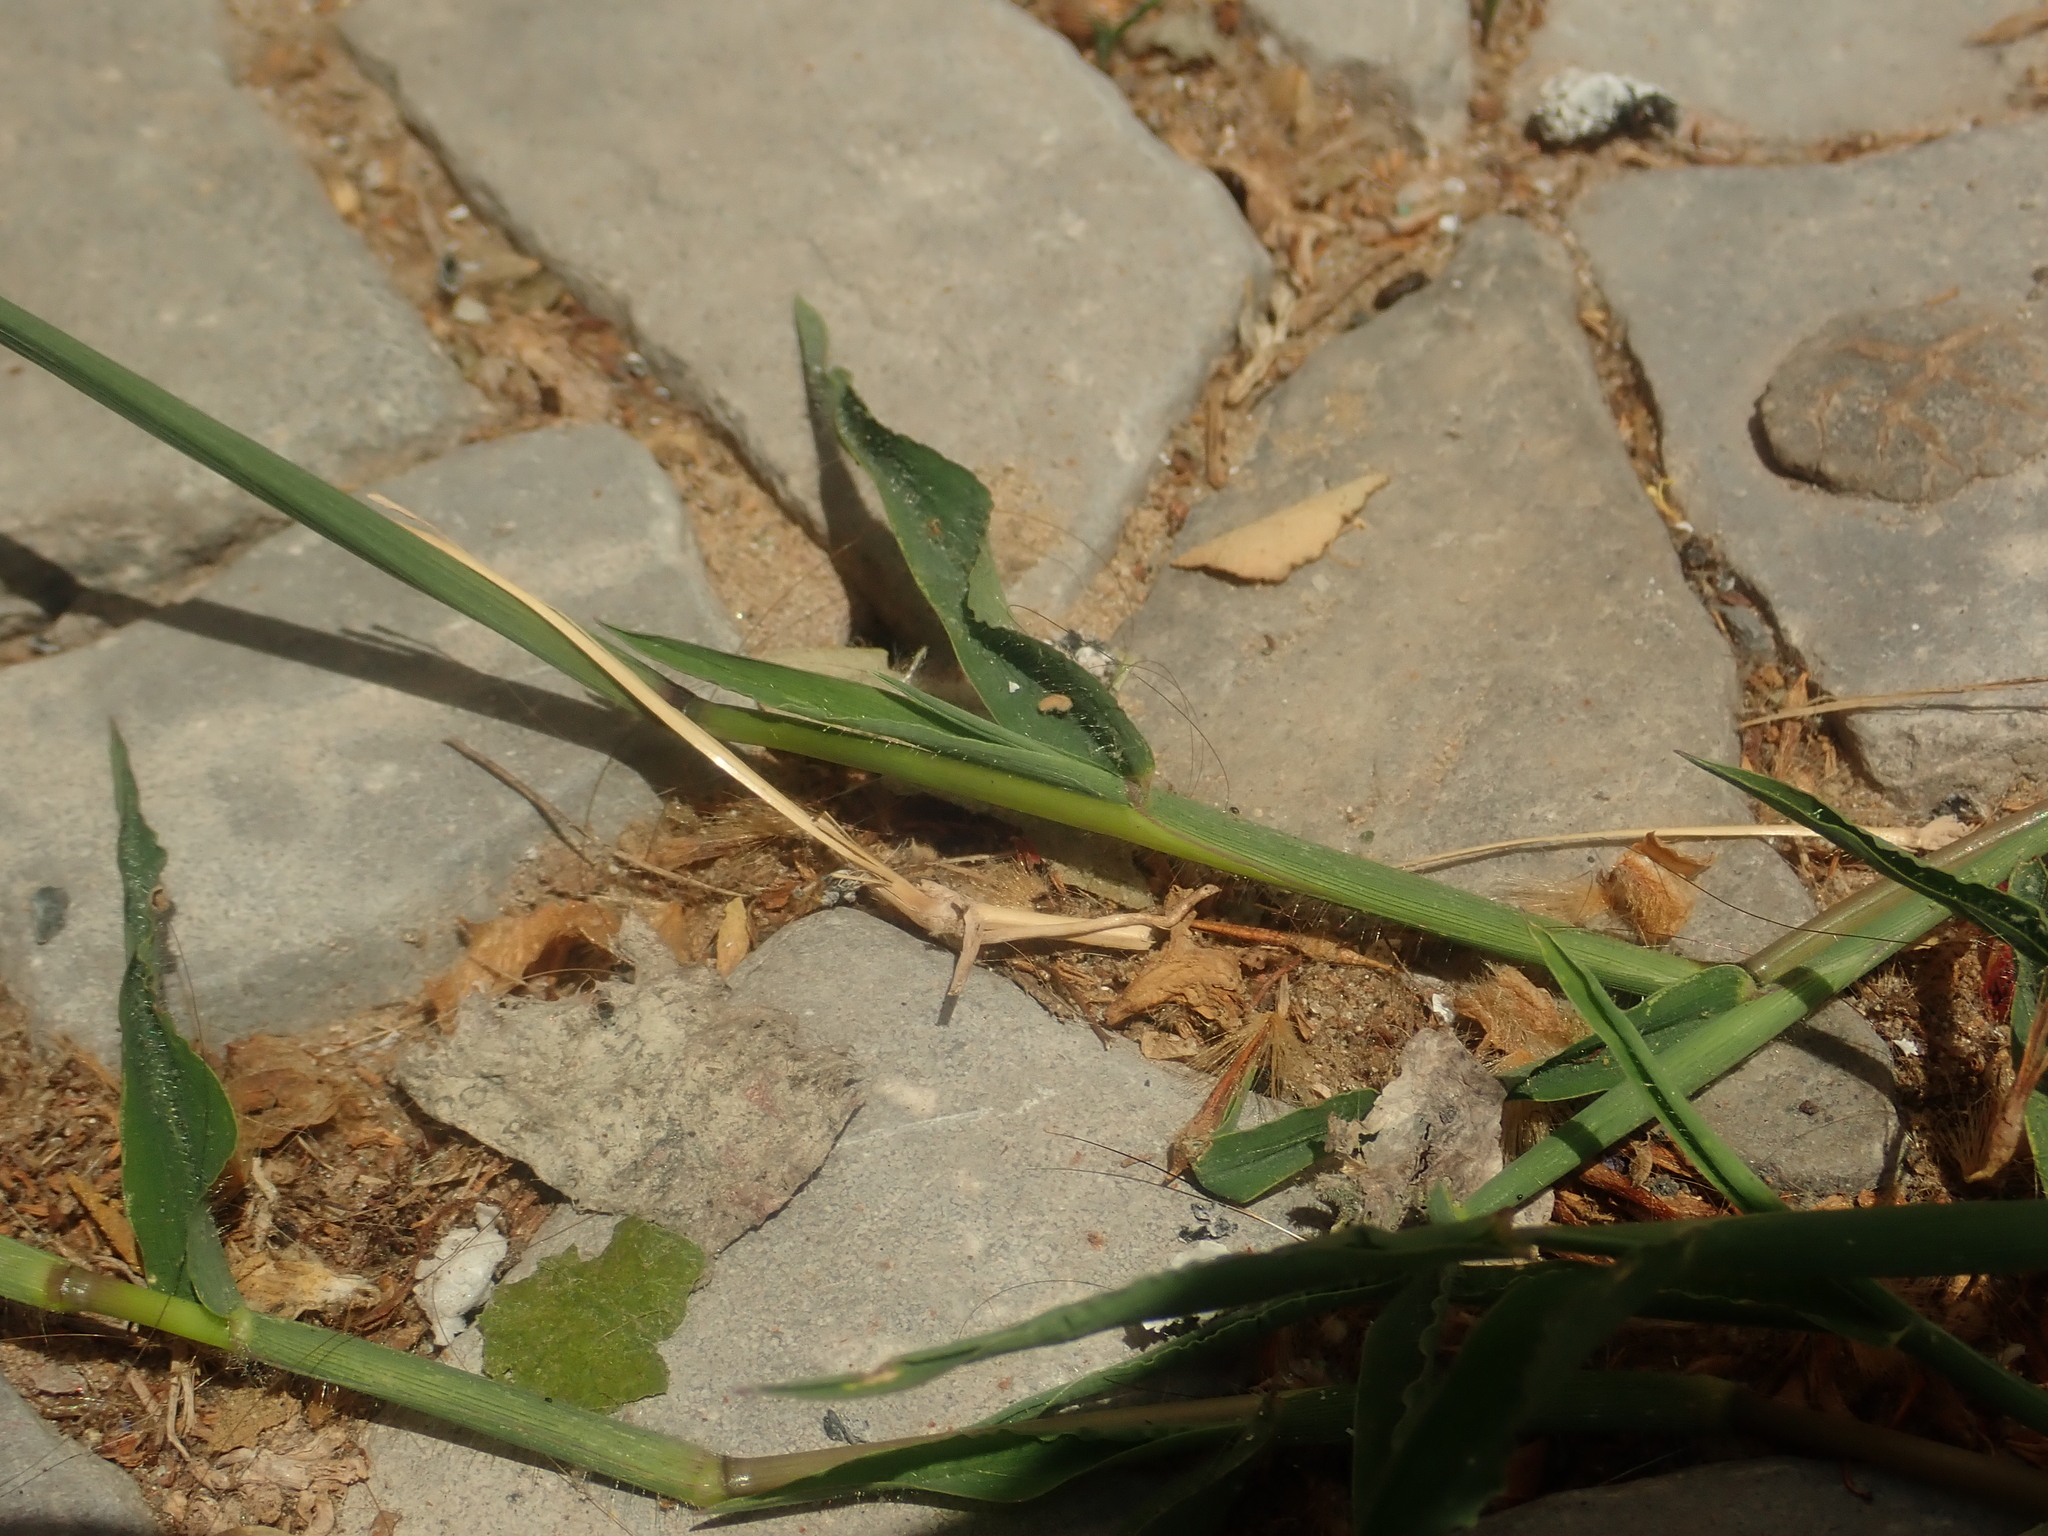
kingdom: Plantae
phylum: Tracheophyta
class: Liliopsida
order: Poales
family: Poaceae
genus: Digitaria
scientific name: Digitaria sanguinalis
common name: Hairy crabgrass
